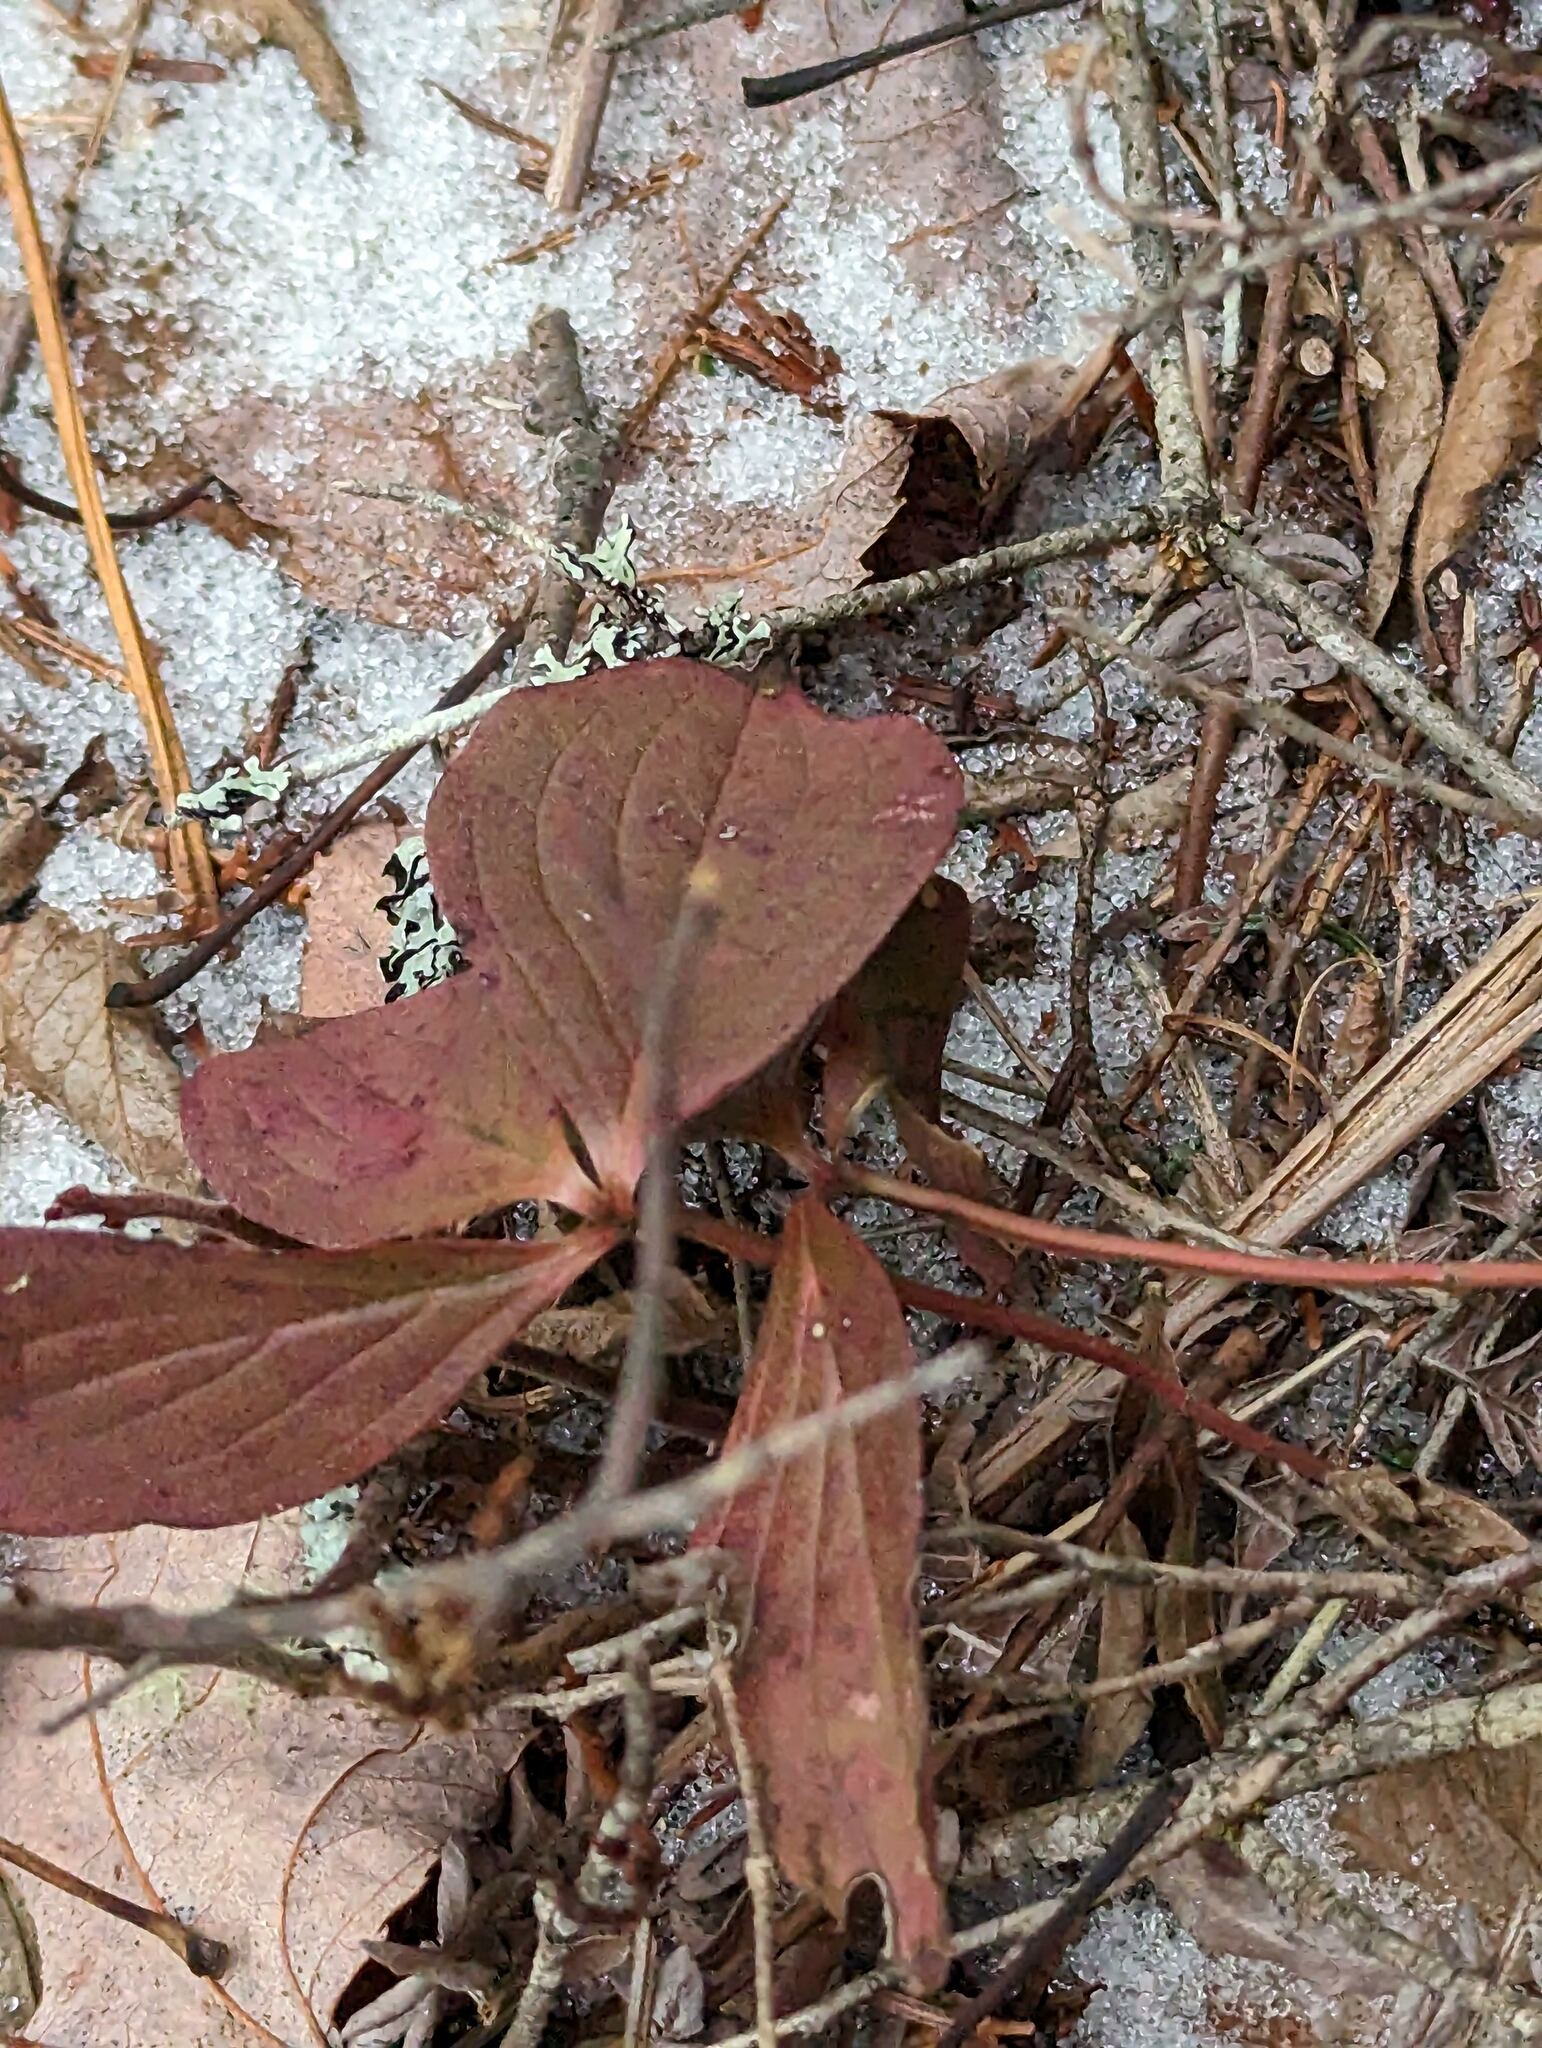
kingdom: Plantae
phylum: Tracheophyta
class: Magnoliopsida
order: Cornales
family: Cornaceae
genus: Cornus
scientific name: Cornus canadensis
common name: Creeping dogwood
